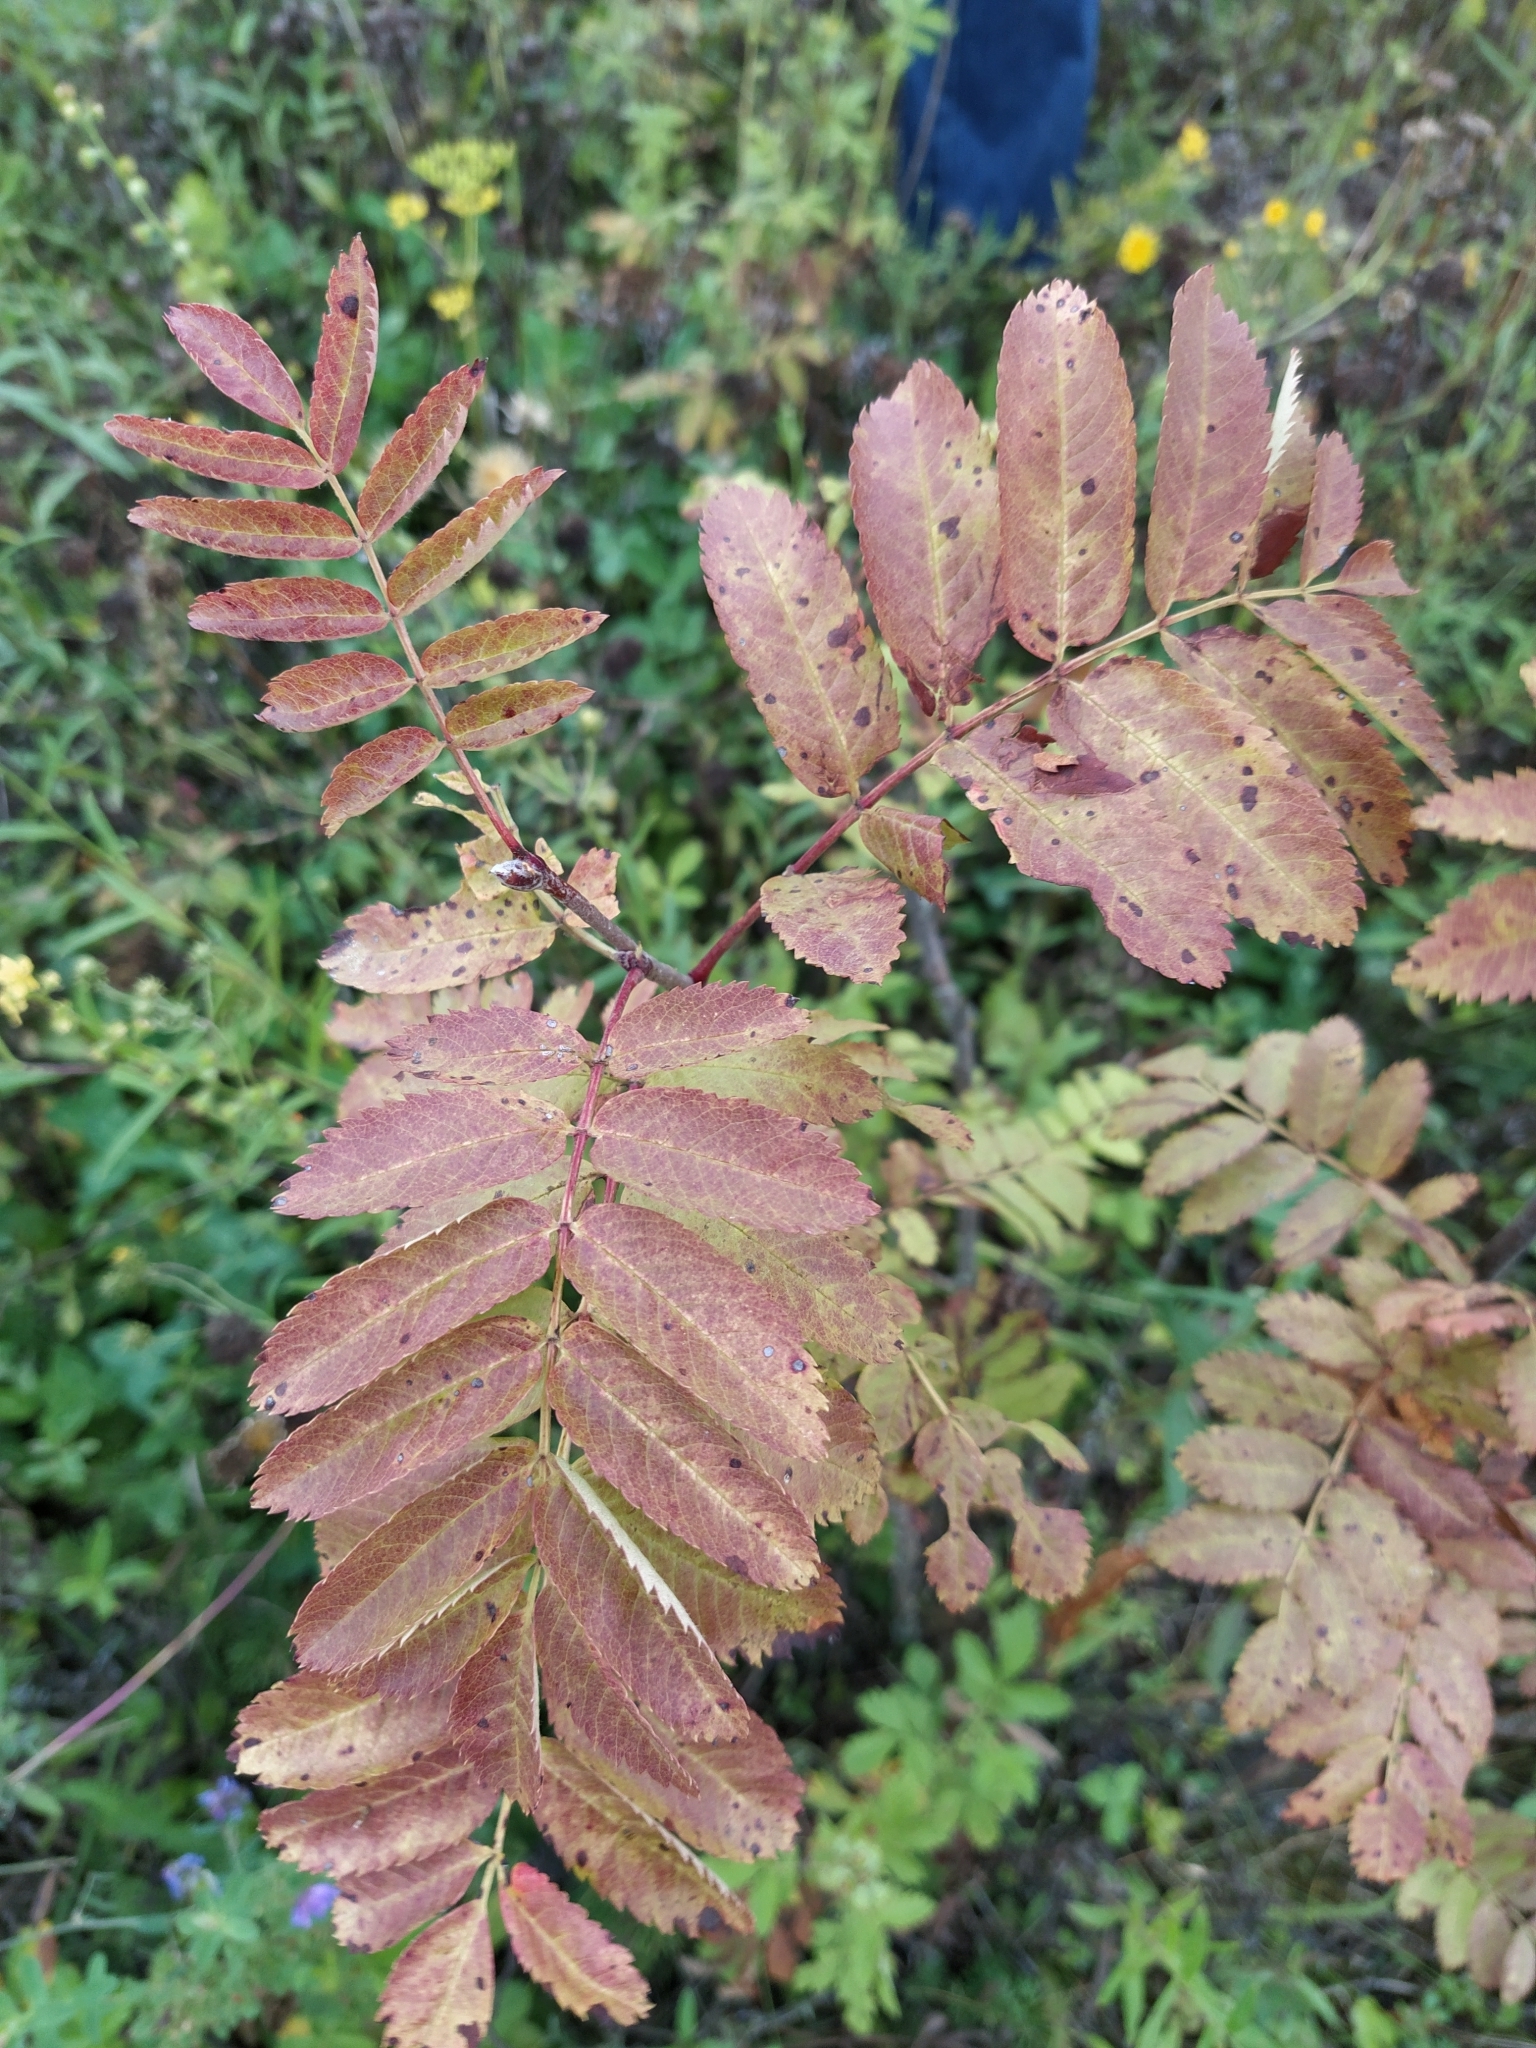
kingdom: Plantae
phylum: Tracheophyta
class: Magnoliopsida
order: Rosales
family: Rosaceae
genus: Sorbus
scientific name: Sorbus aucuparia
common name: Rowan
